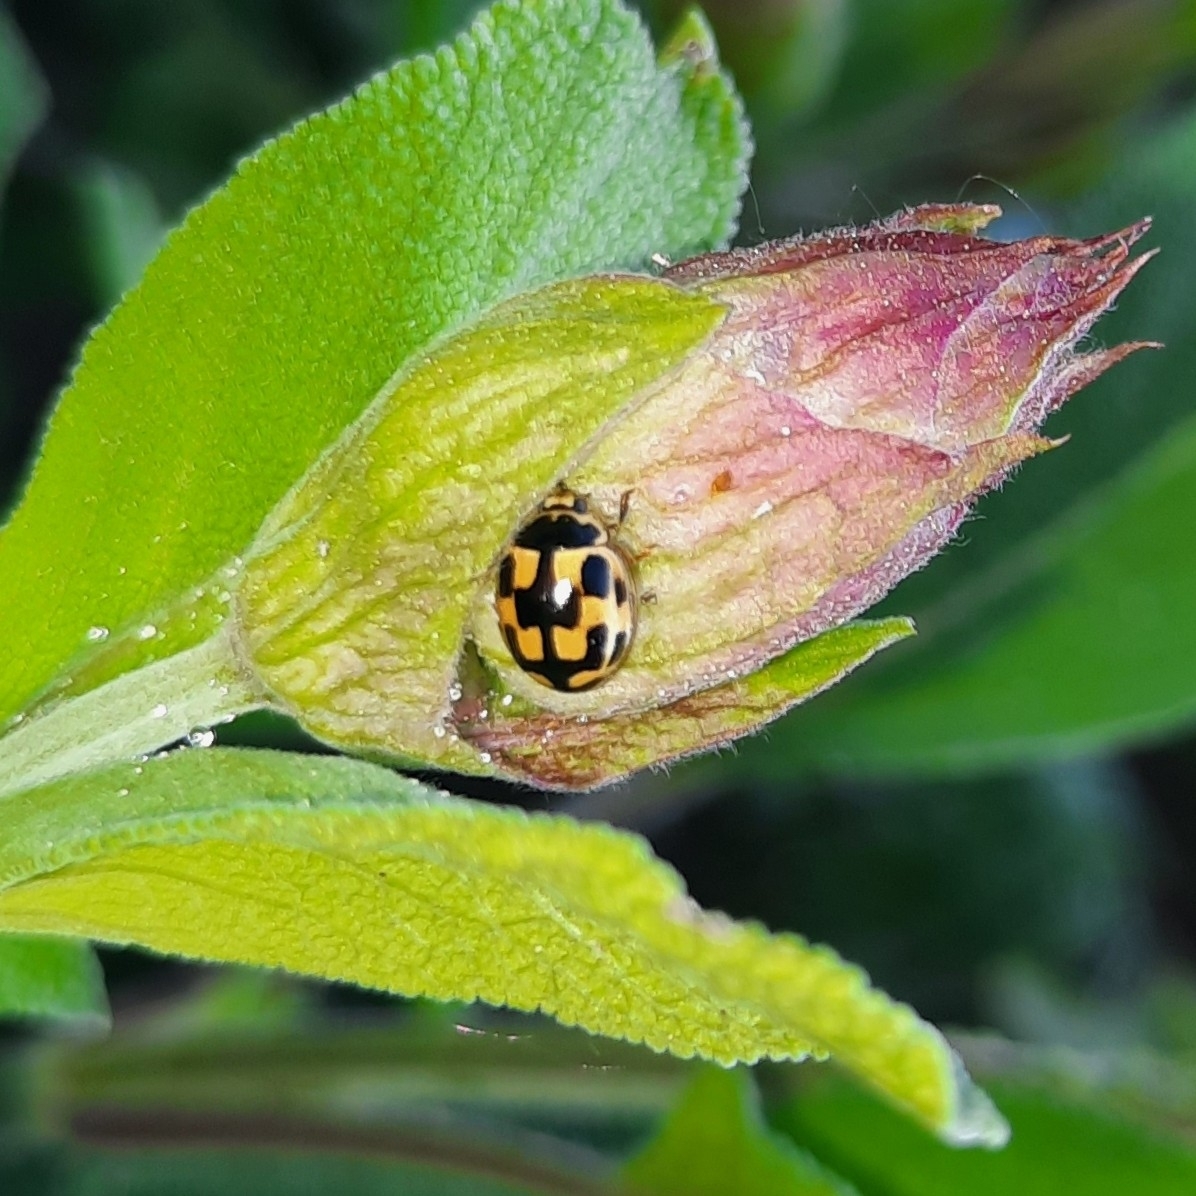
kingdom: Animalia
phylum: Arthropoda
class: Insecta
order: Coleoptera
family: Coccinellidae
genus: Propylaea
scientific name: Propylaea quatuordecimpunctata
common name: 14-spotted ladybird beetle
